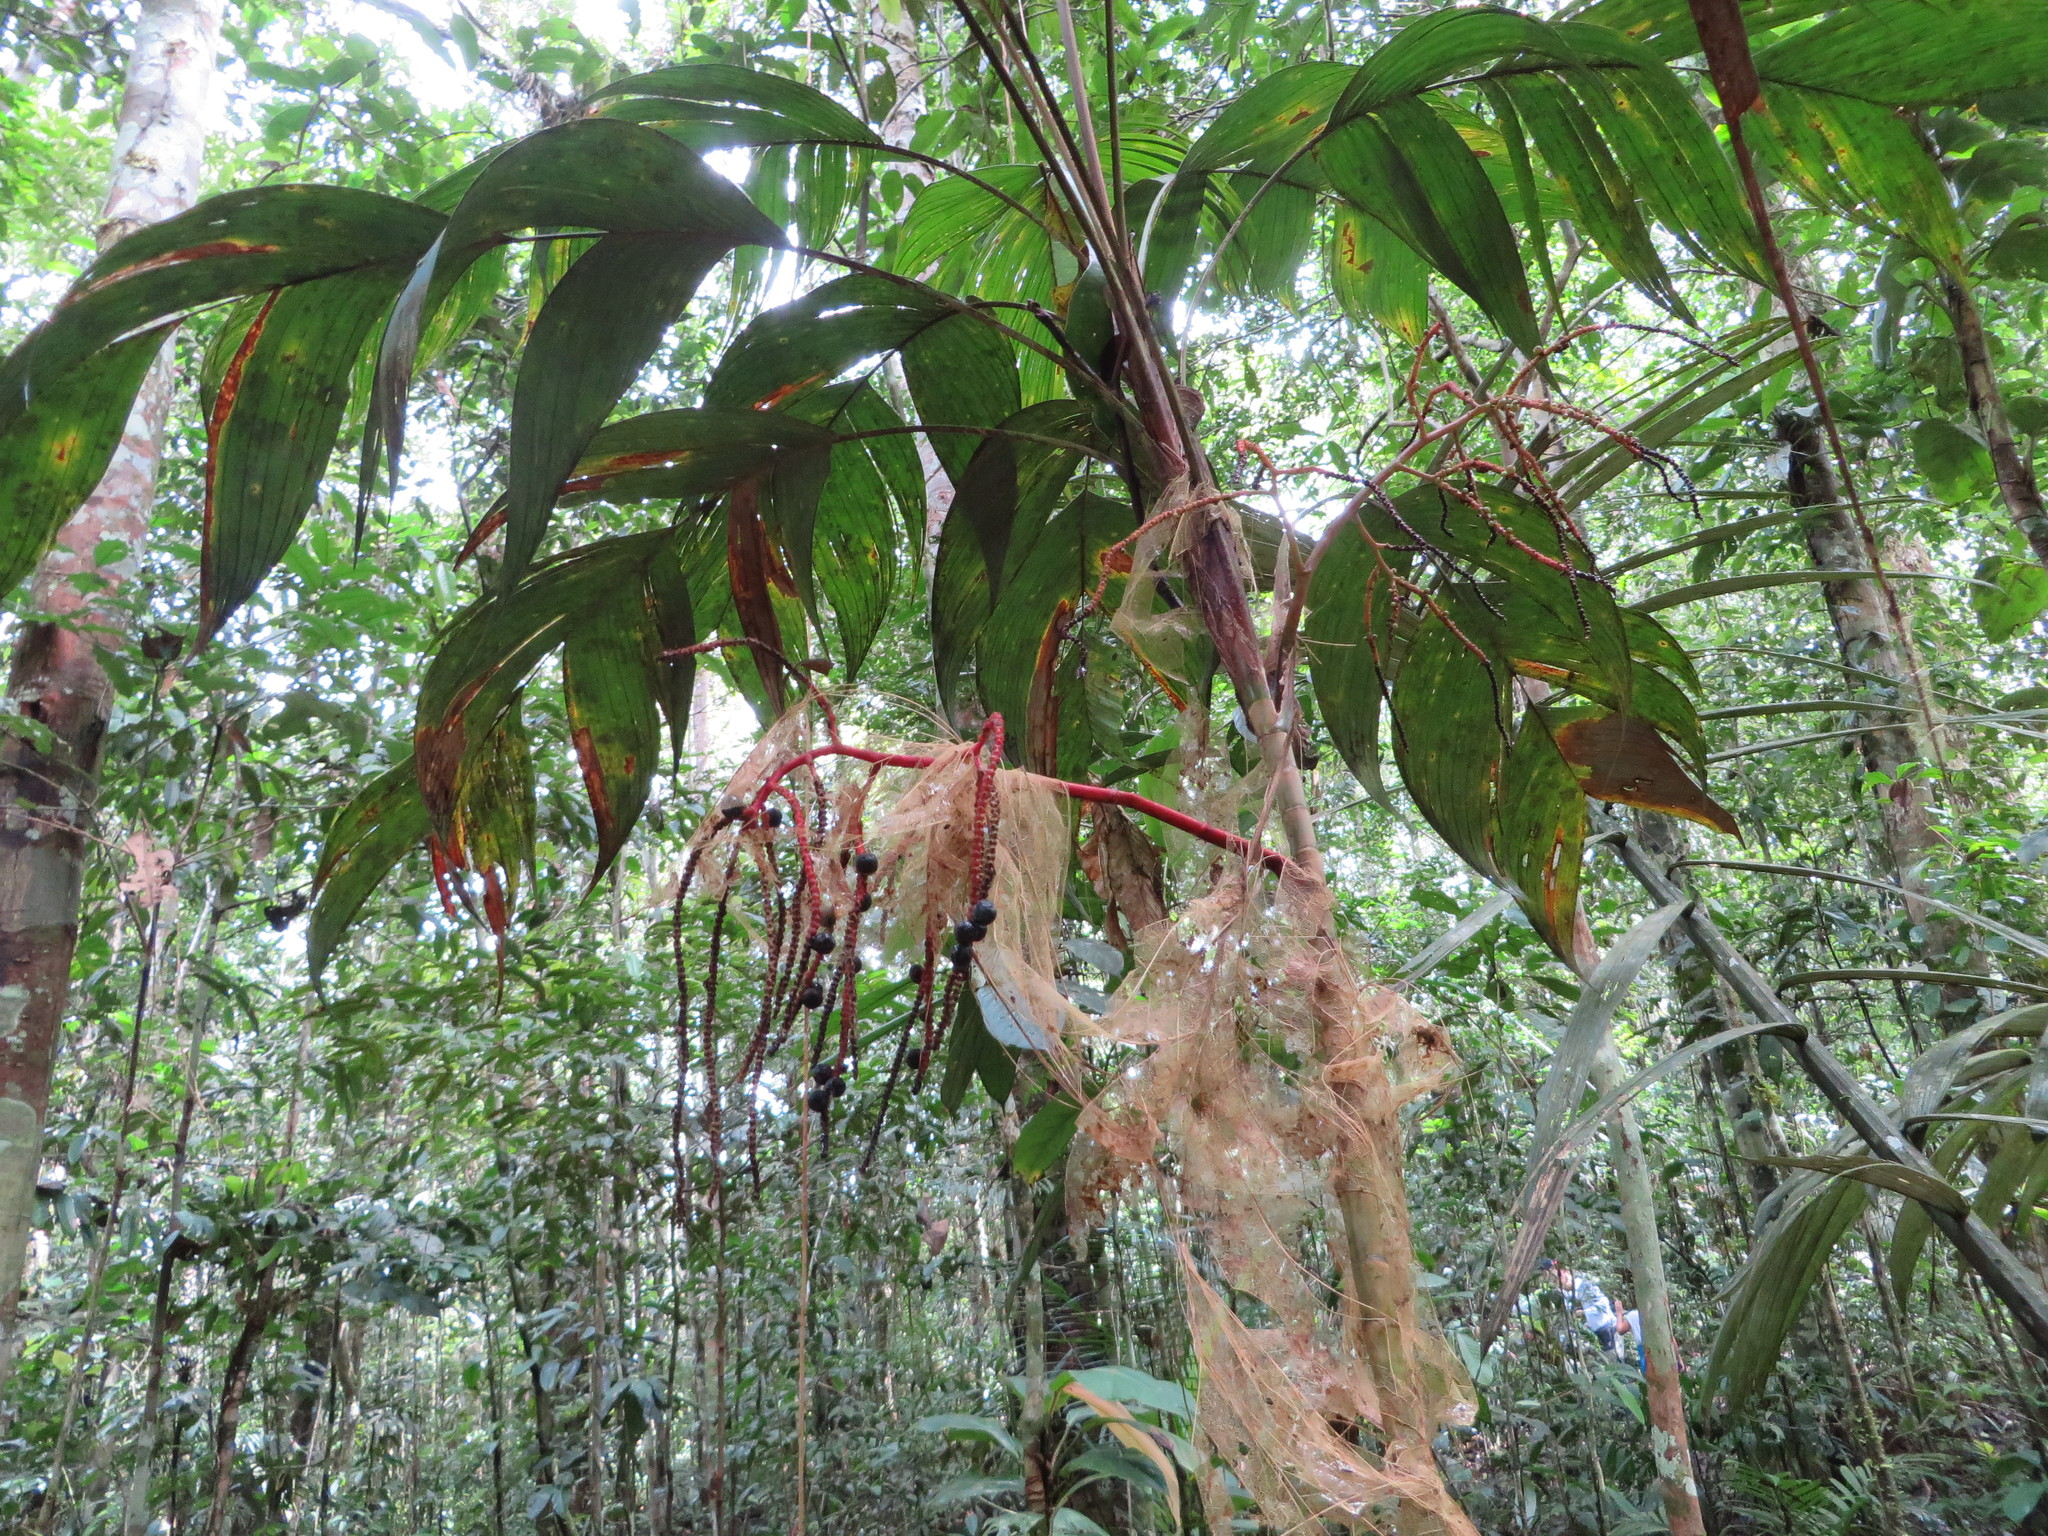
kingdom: Plantae
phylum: Tracheophyta
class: Liliopsida
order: Arecales
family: Arecaceae
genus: Geonoma
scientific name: Geonoma interrupta
